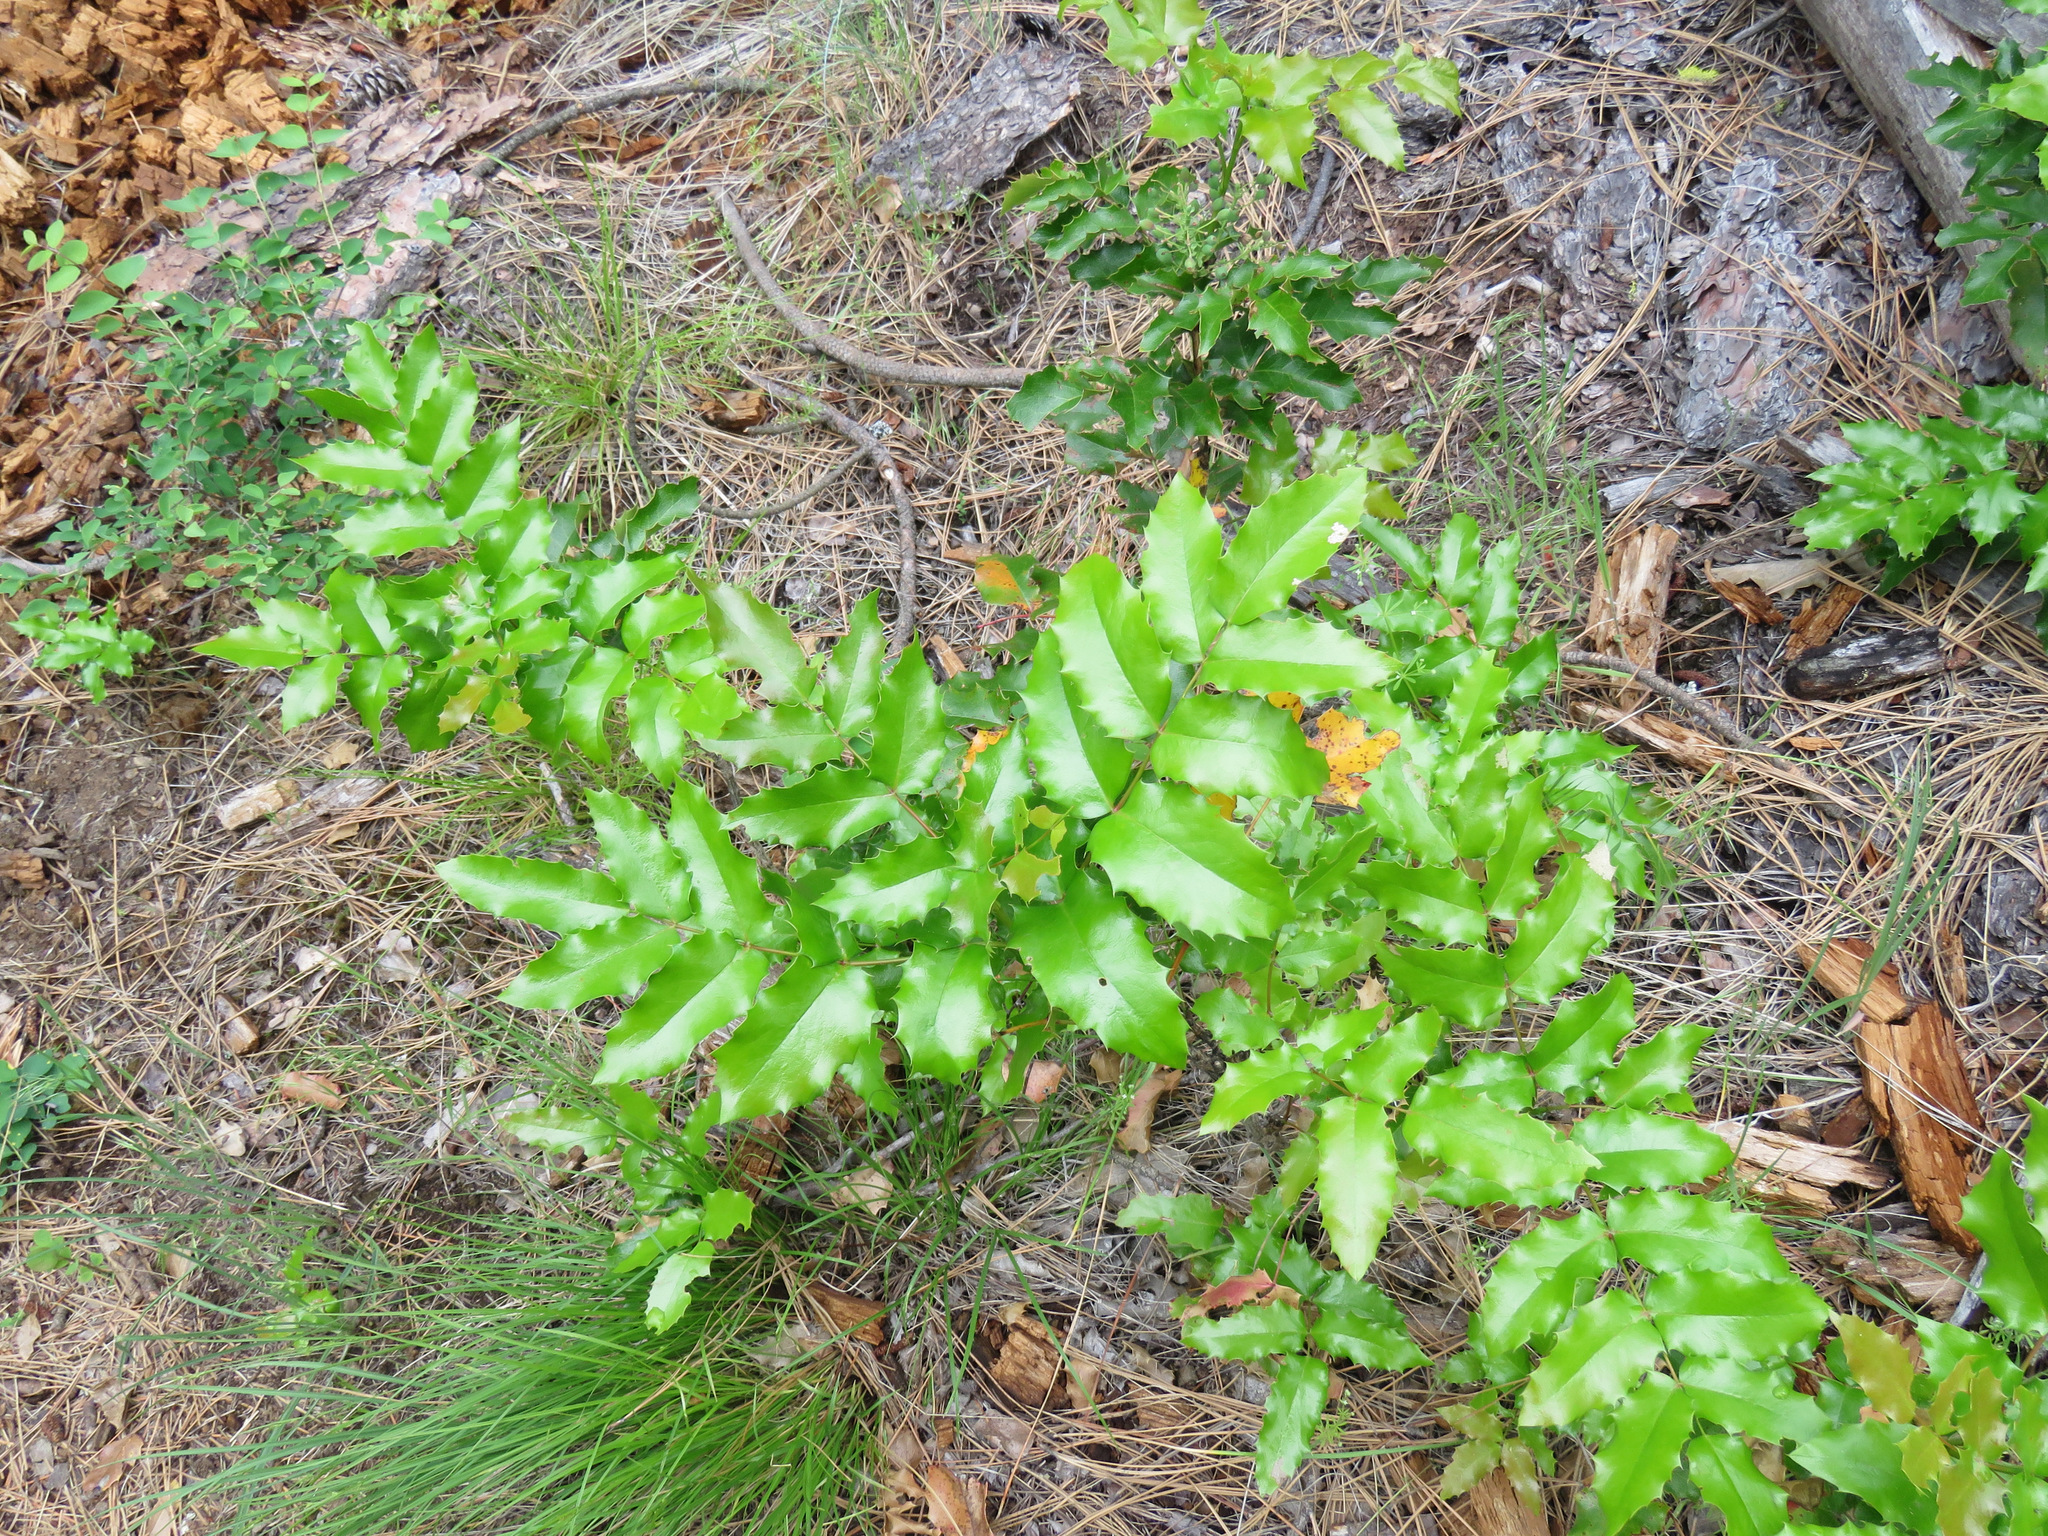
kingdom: Plantae
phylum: Tracheophyta
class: Magnoliopsida
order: Ranunculales
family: Berberidaceae
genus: Mahonia
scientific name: Mahonia aquifolium
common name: Oregon-grape
